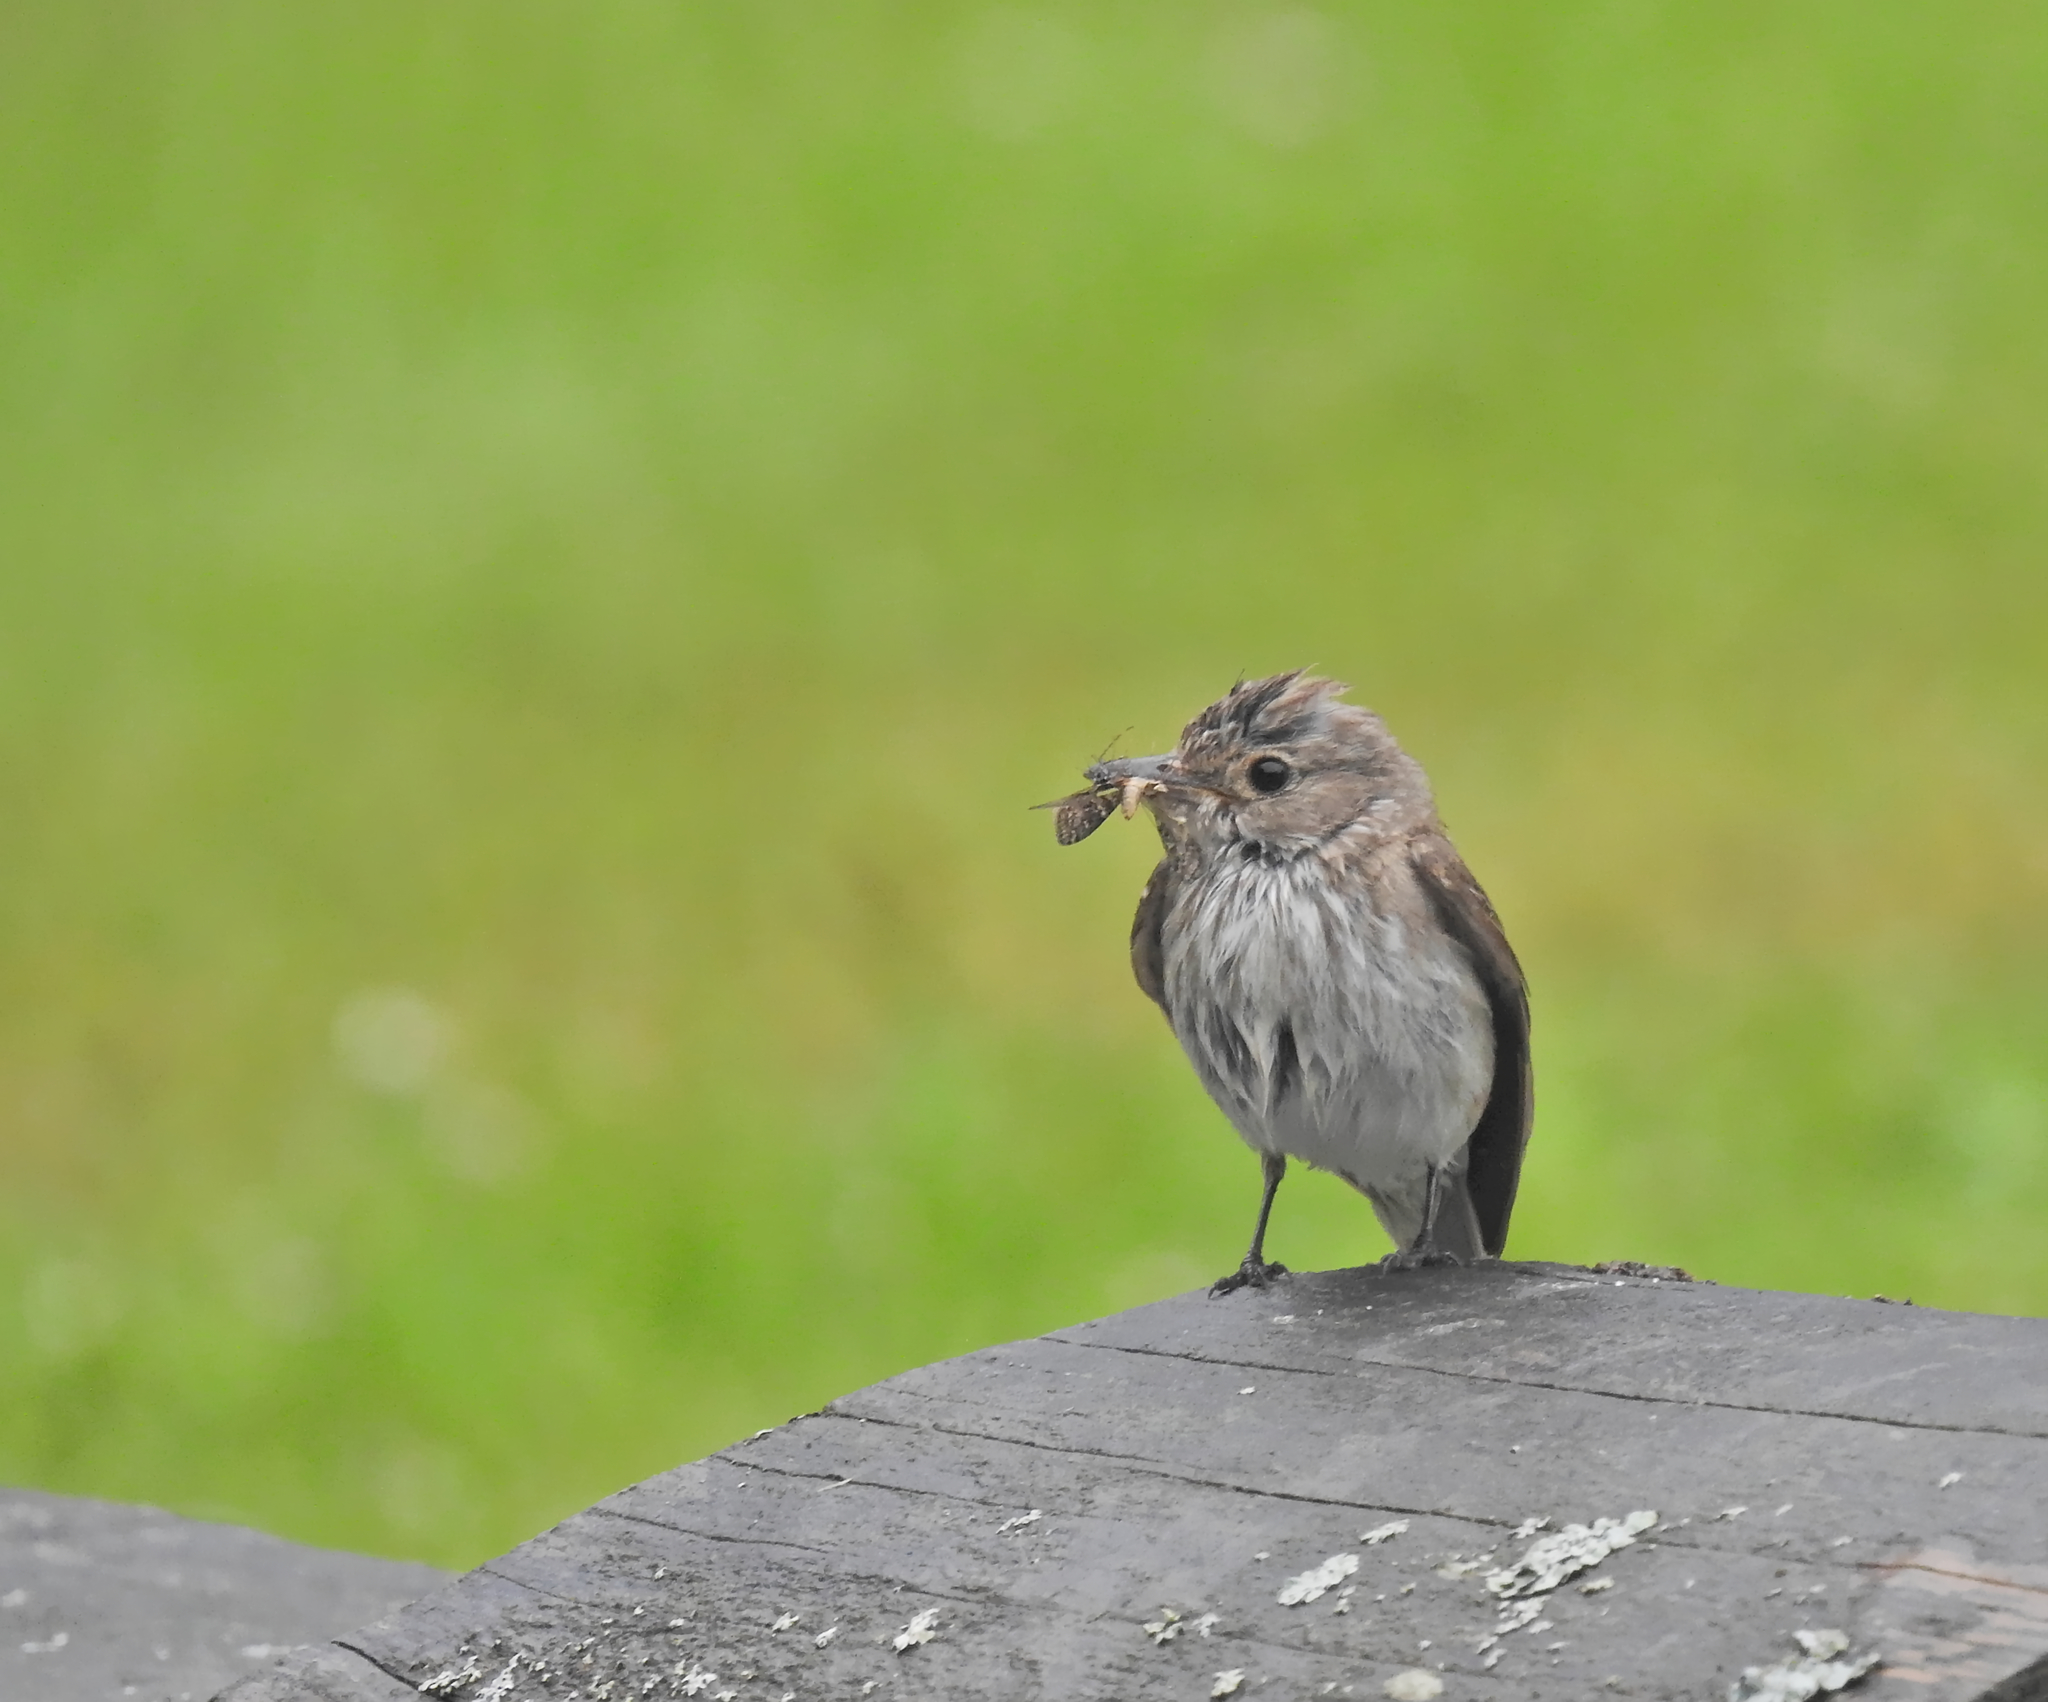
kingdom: Animalia
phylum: Chordata
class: Aves
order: Passeriformes
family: Muscicapidae
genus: Muscicapa
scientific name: Muscicapa striata
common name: Spotted flycatcher
